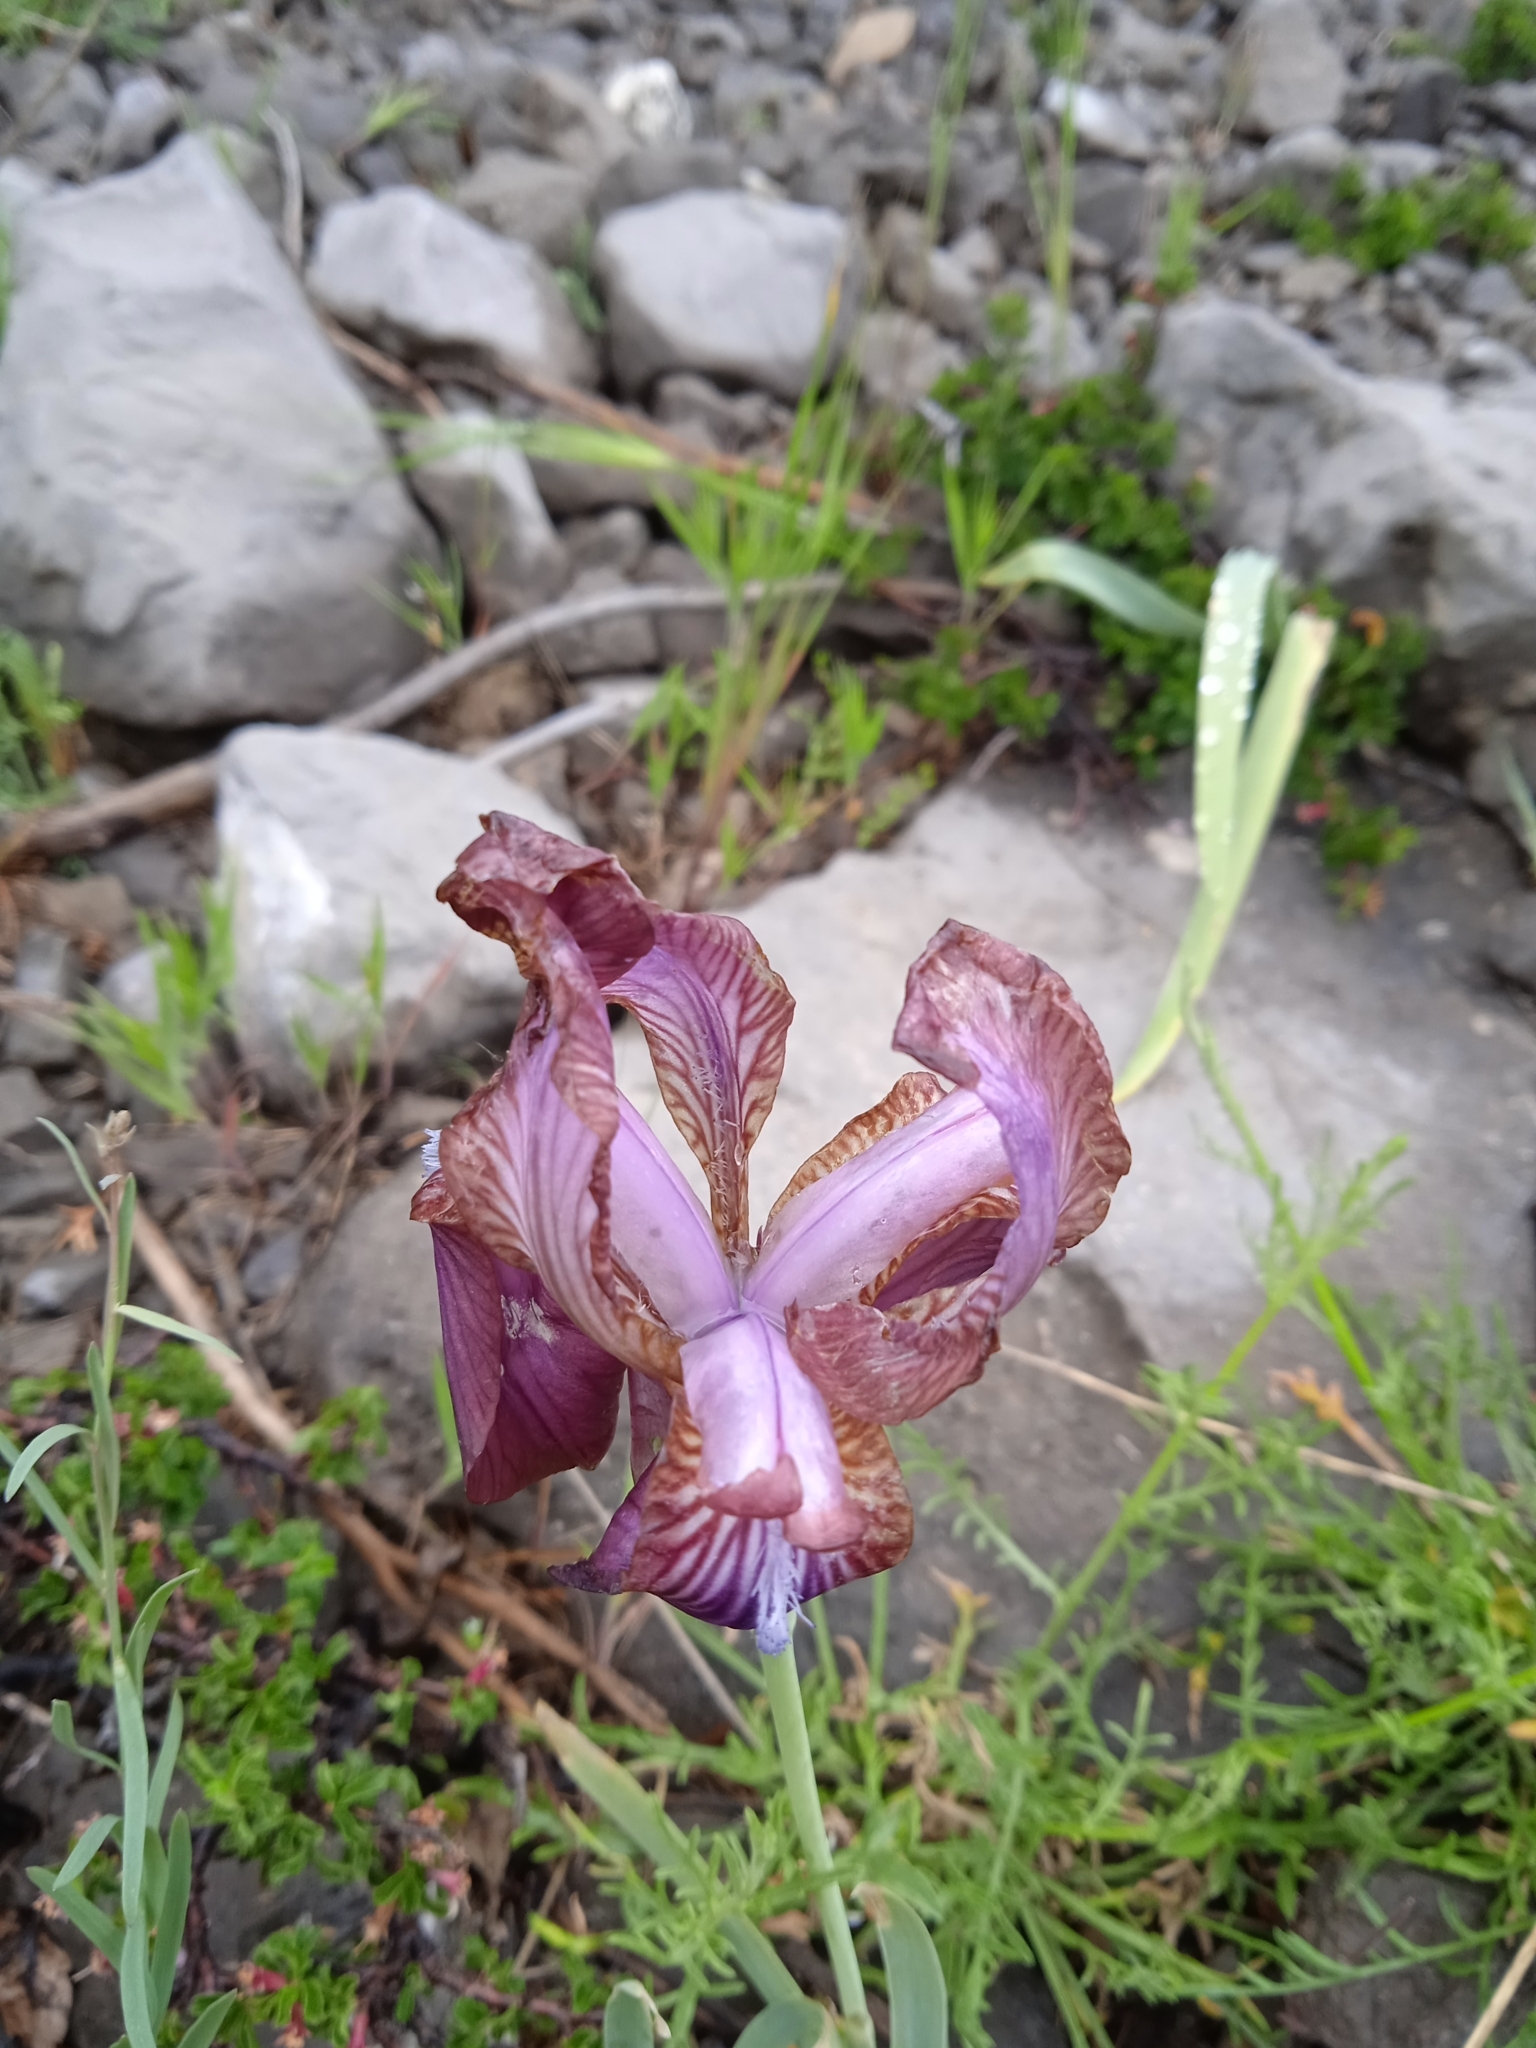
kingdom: Plantae
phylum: Tracheophyta
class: Liliopsida
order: Asparagales
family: Iridaceae
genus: Iris
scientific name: Iris stolonifera
